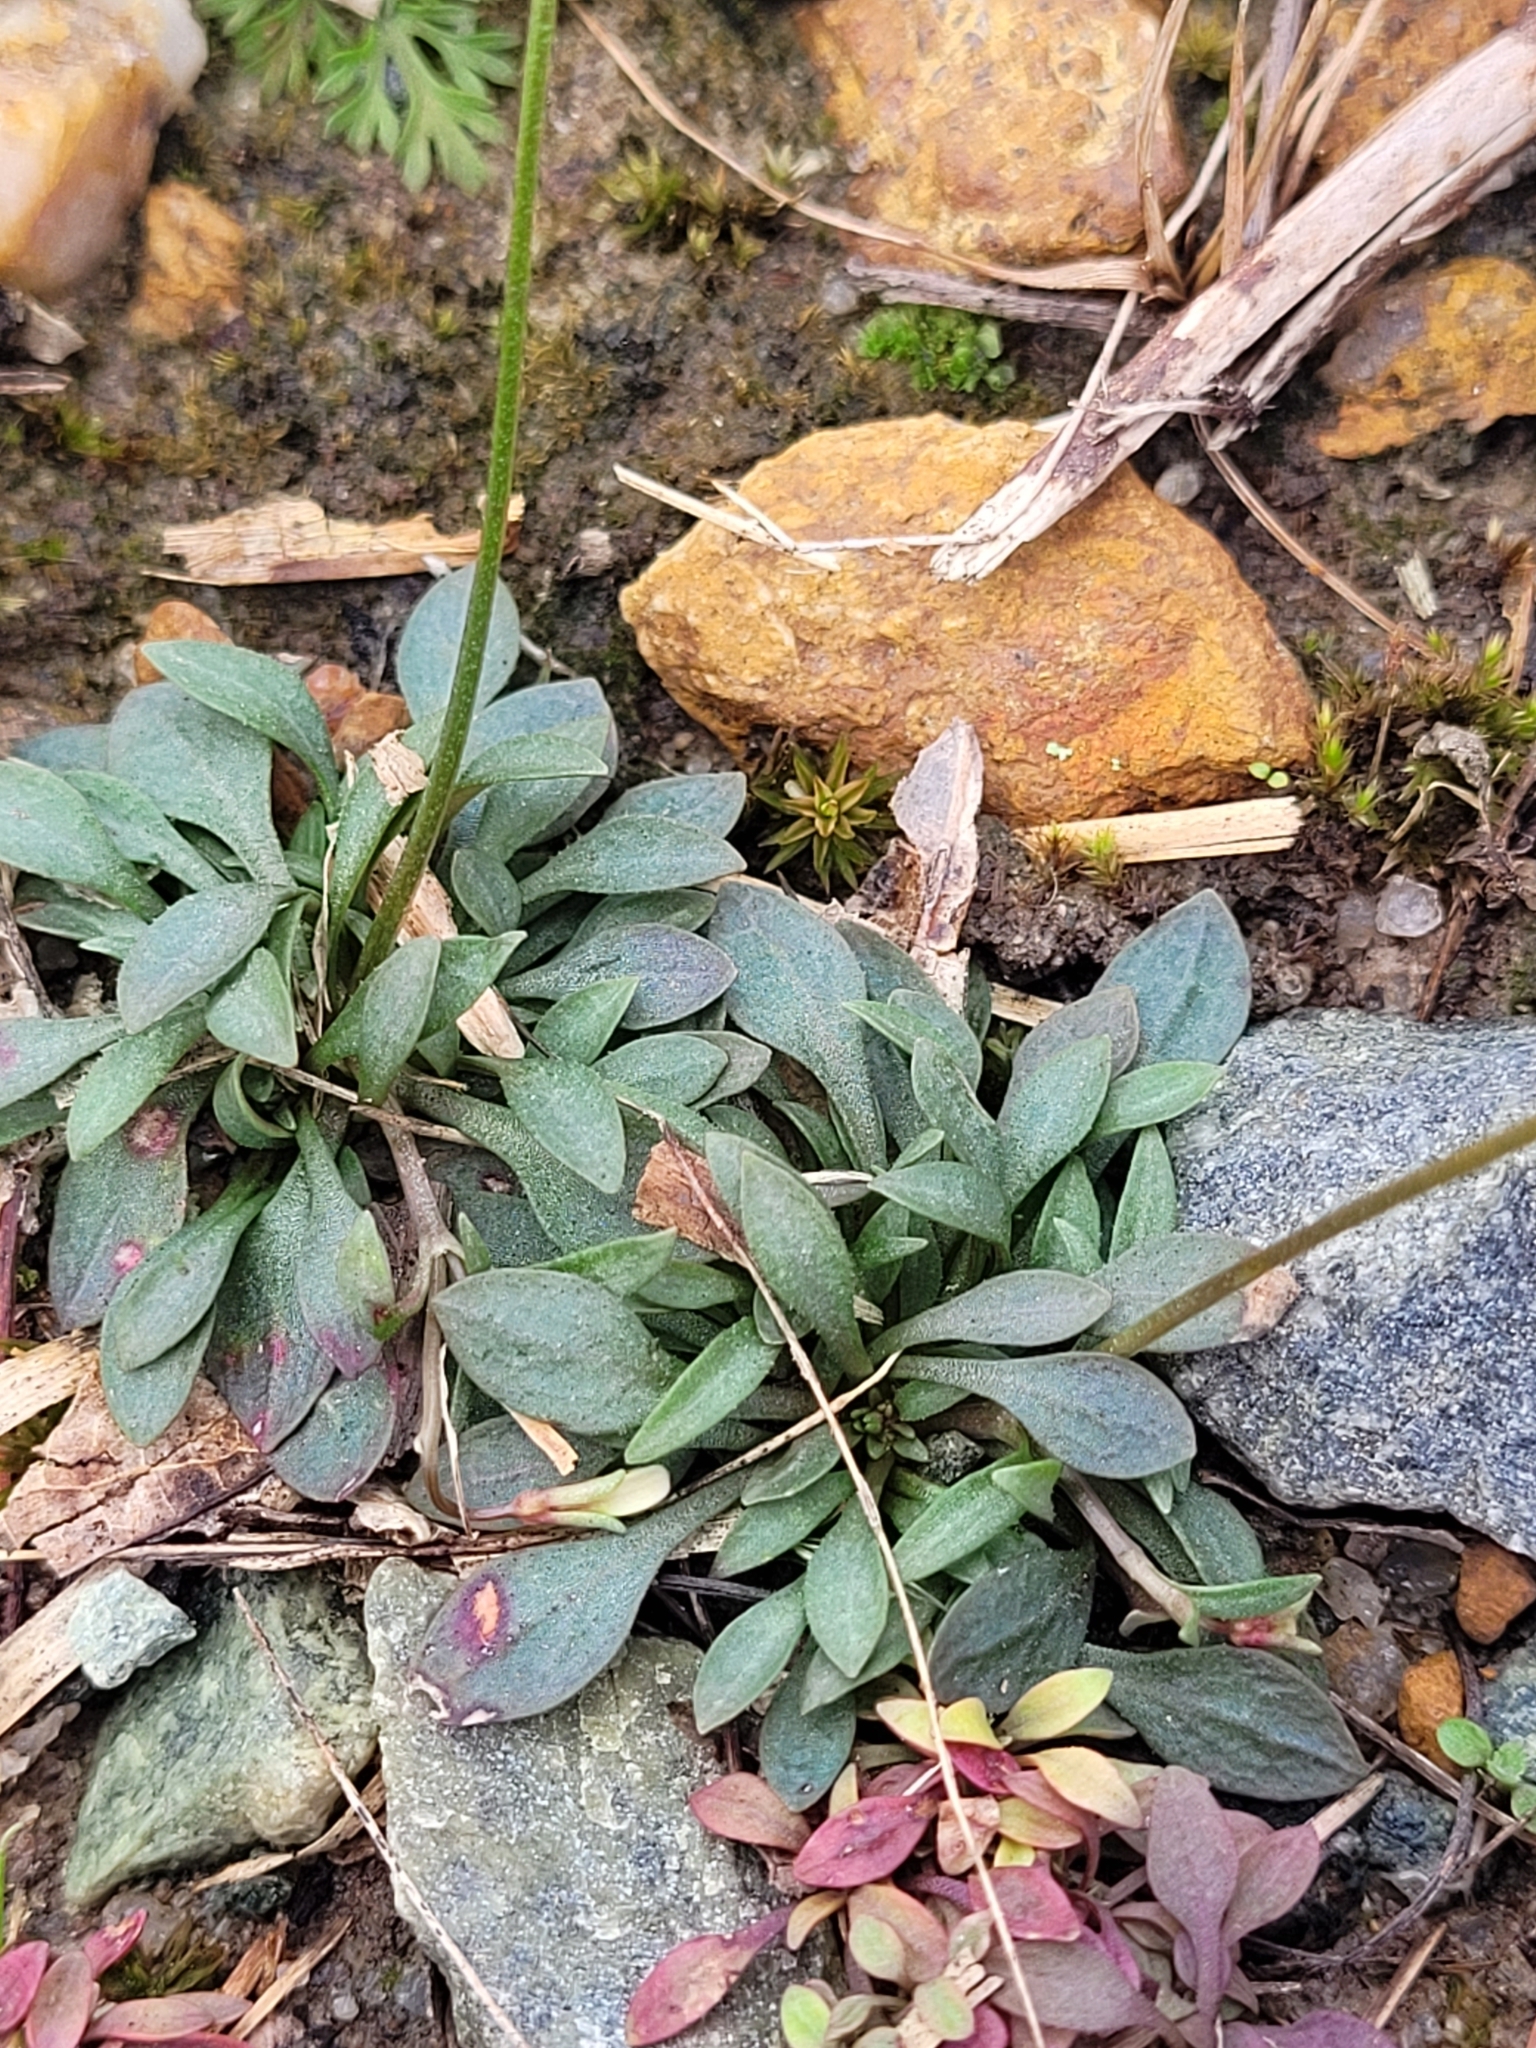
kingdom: Plantae
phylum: Tracheophyta
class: Magnoliopsida
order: Gentianales
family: Rubiaceae
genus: Houstonia
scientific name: Houstonia caerulea
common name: Bluets
